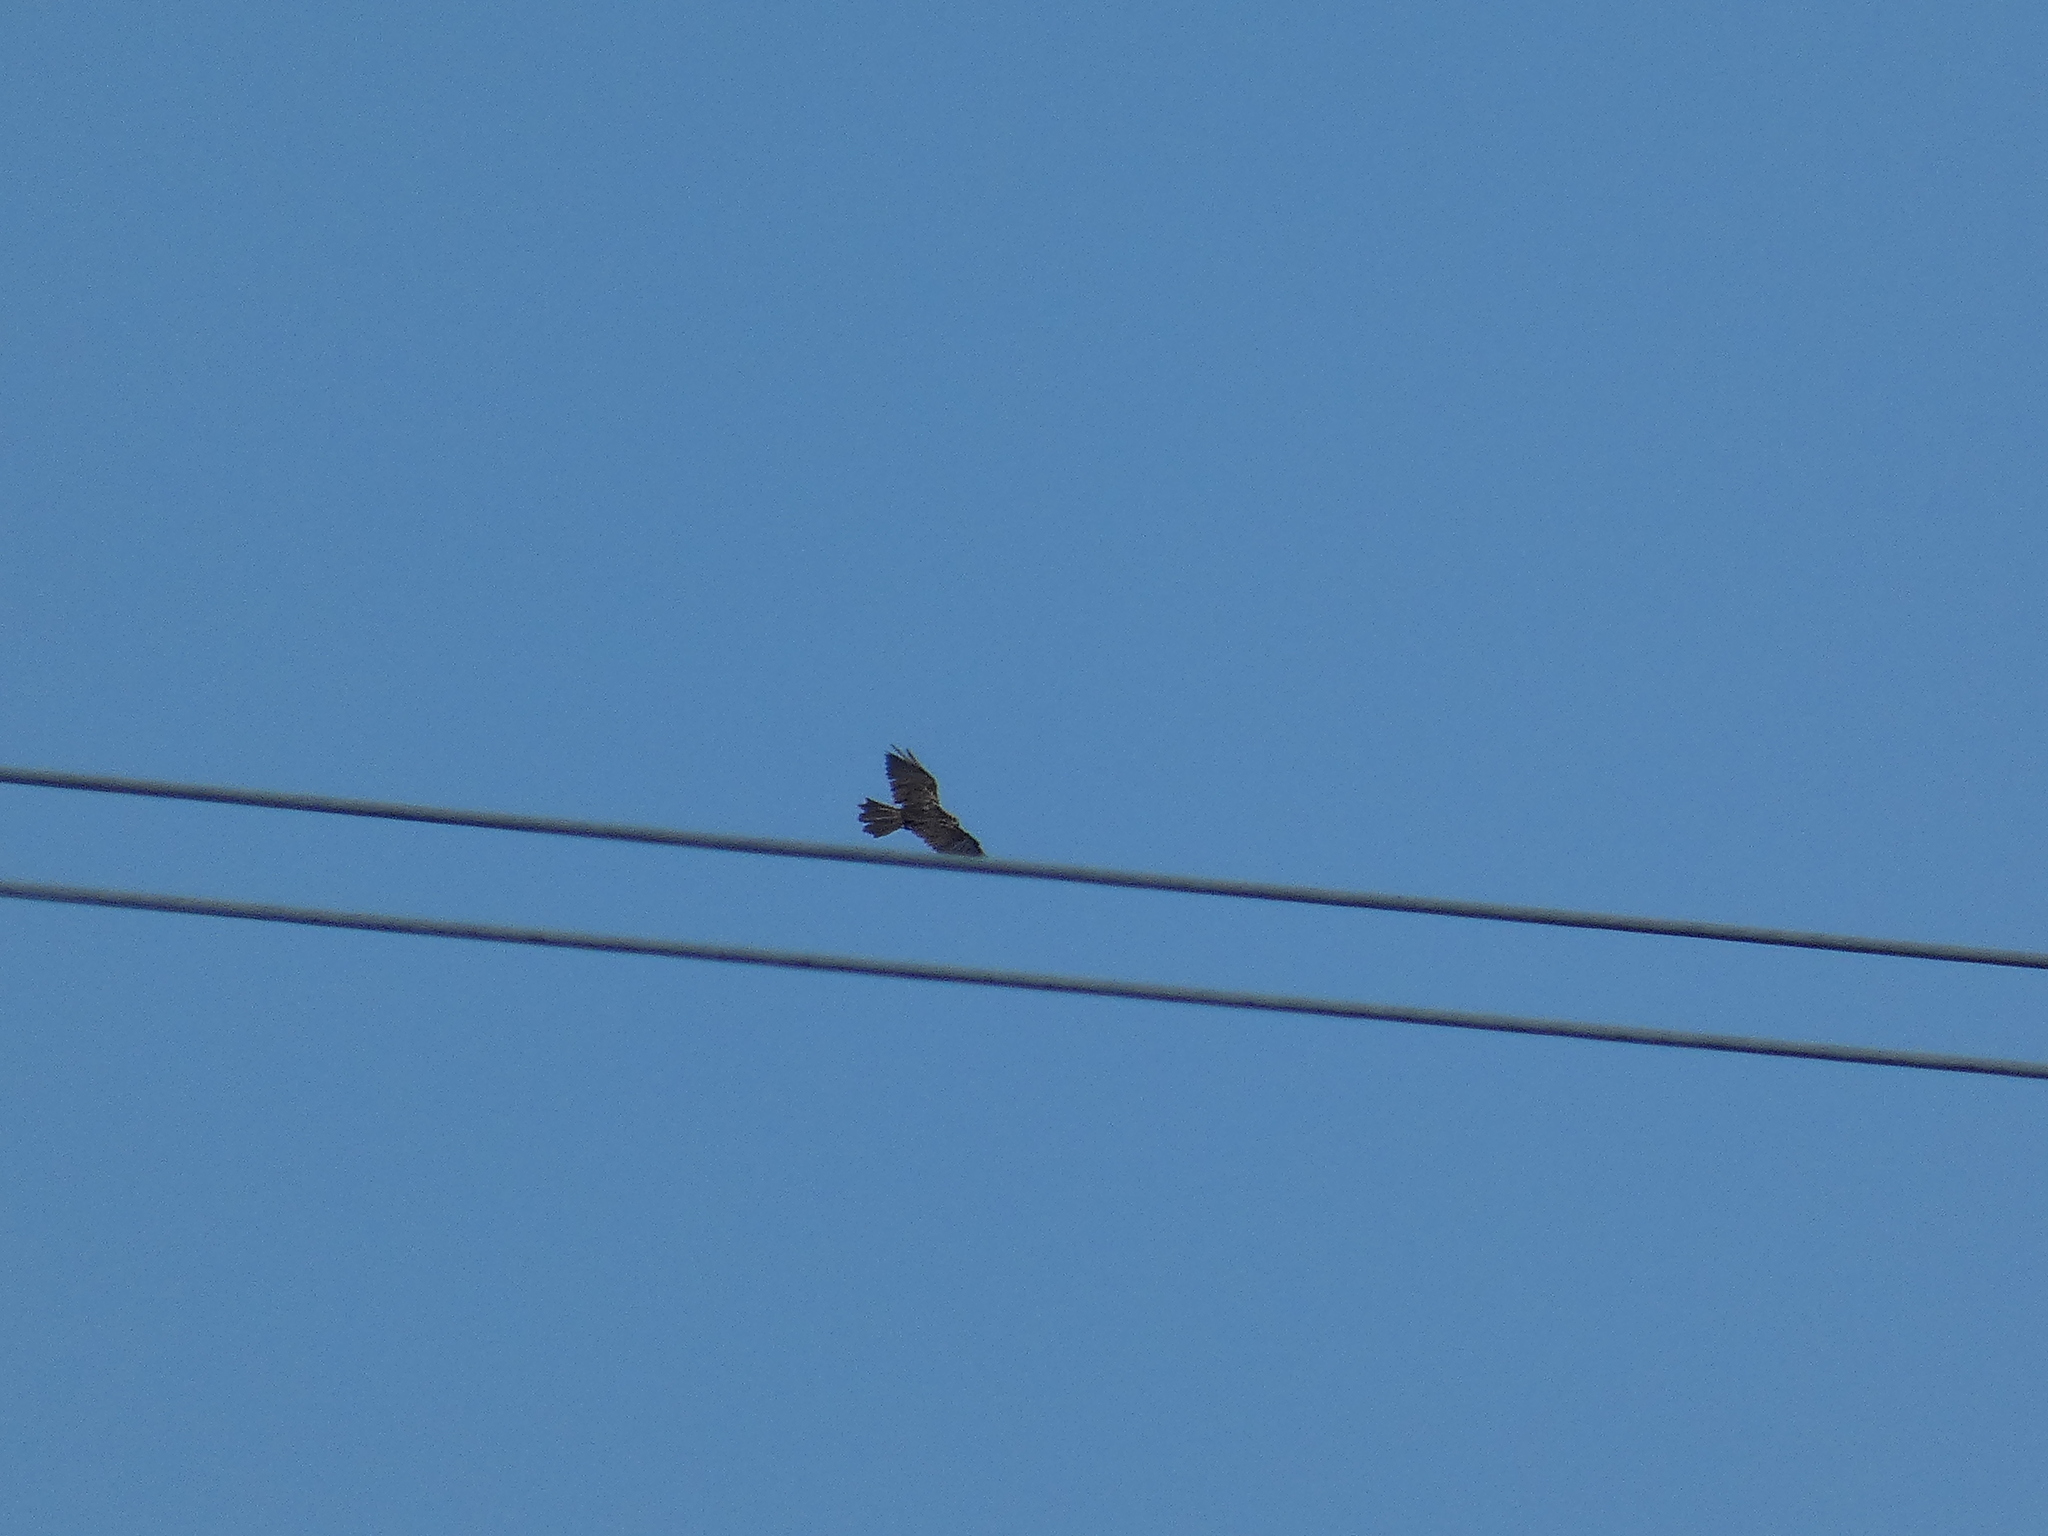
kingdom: Animalia
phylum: Chordata
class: Aves
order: Accipitriformes
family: Accipitridae
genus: Buteo
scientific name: Buteo buteo
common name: Common buzzard
